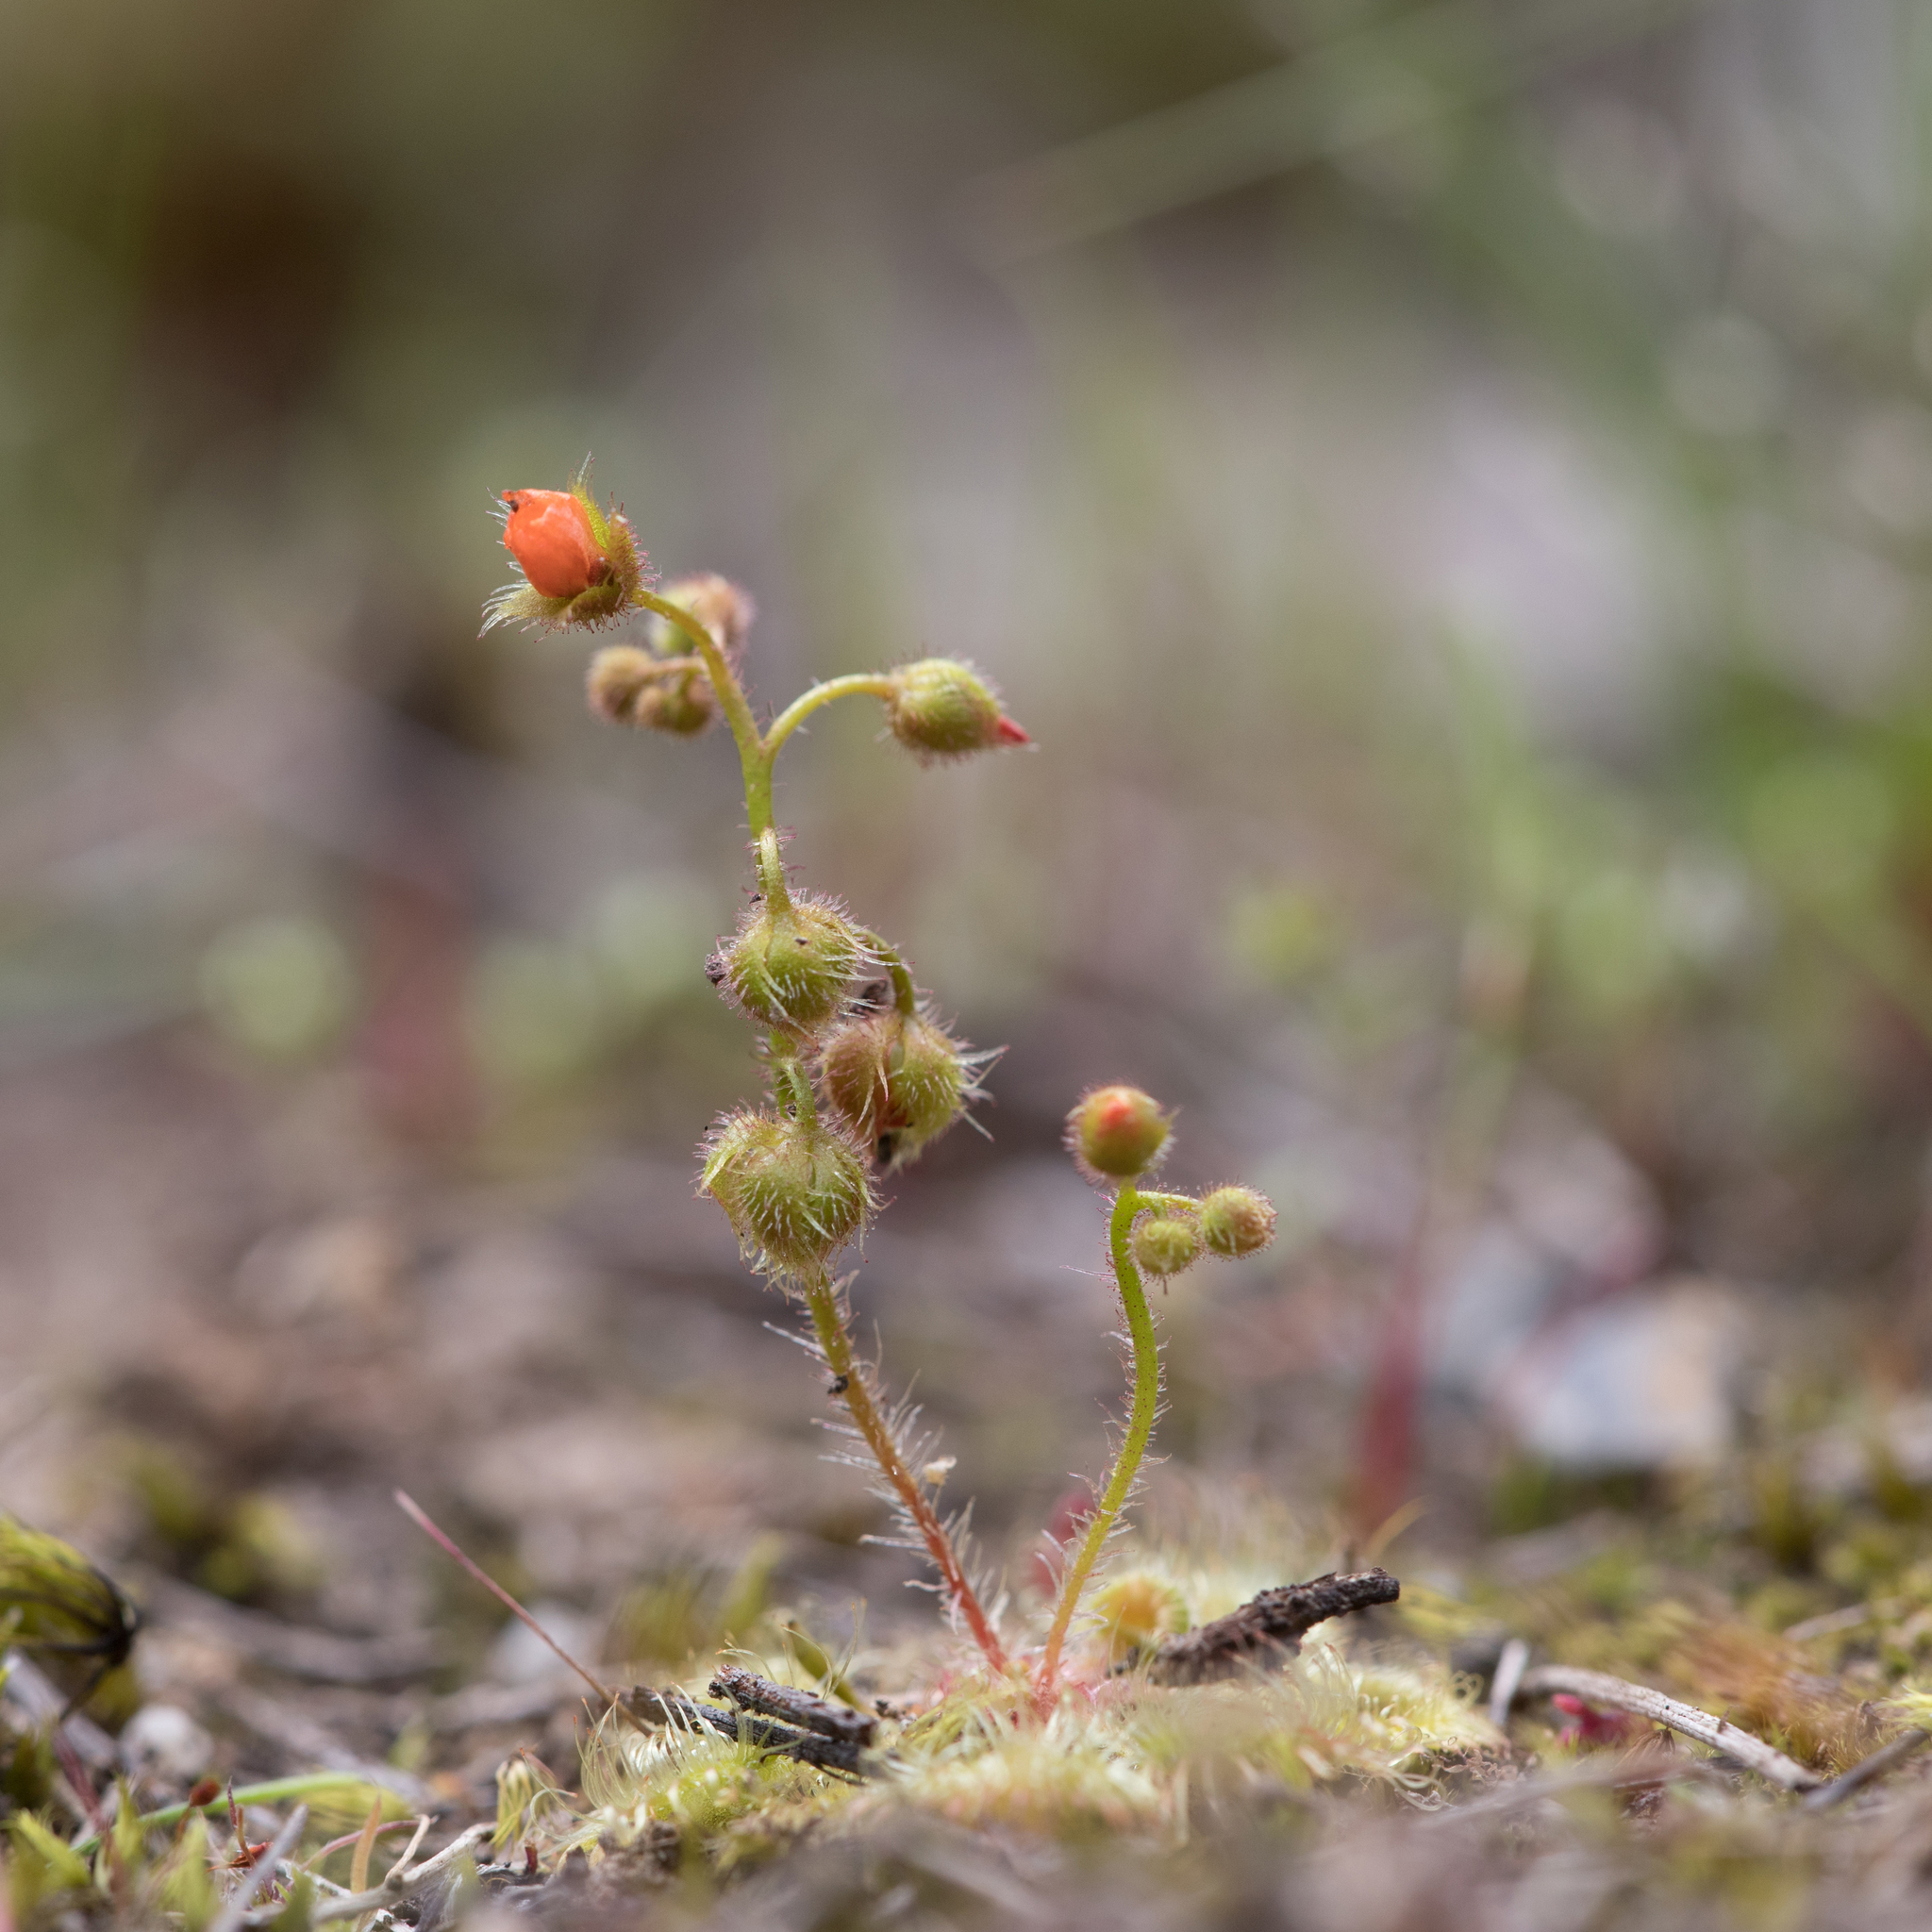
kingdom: Plantae
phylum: Tracheophyta
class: Magnoliopsida
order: Caryophyllales
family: Droseraceae
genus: Drosera
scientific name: Drosera glanduligera
